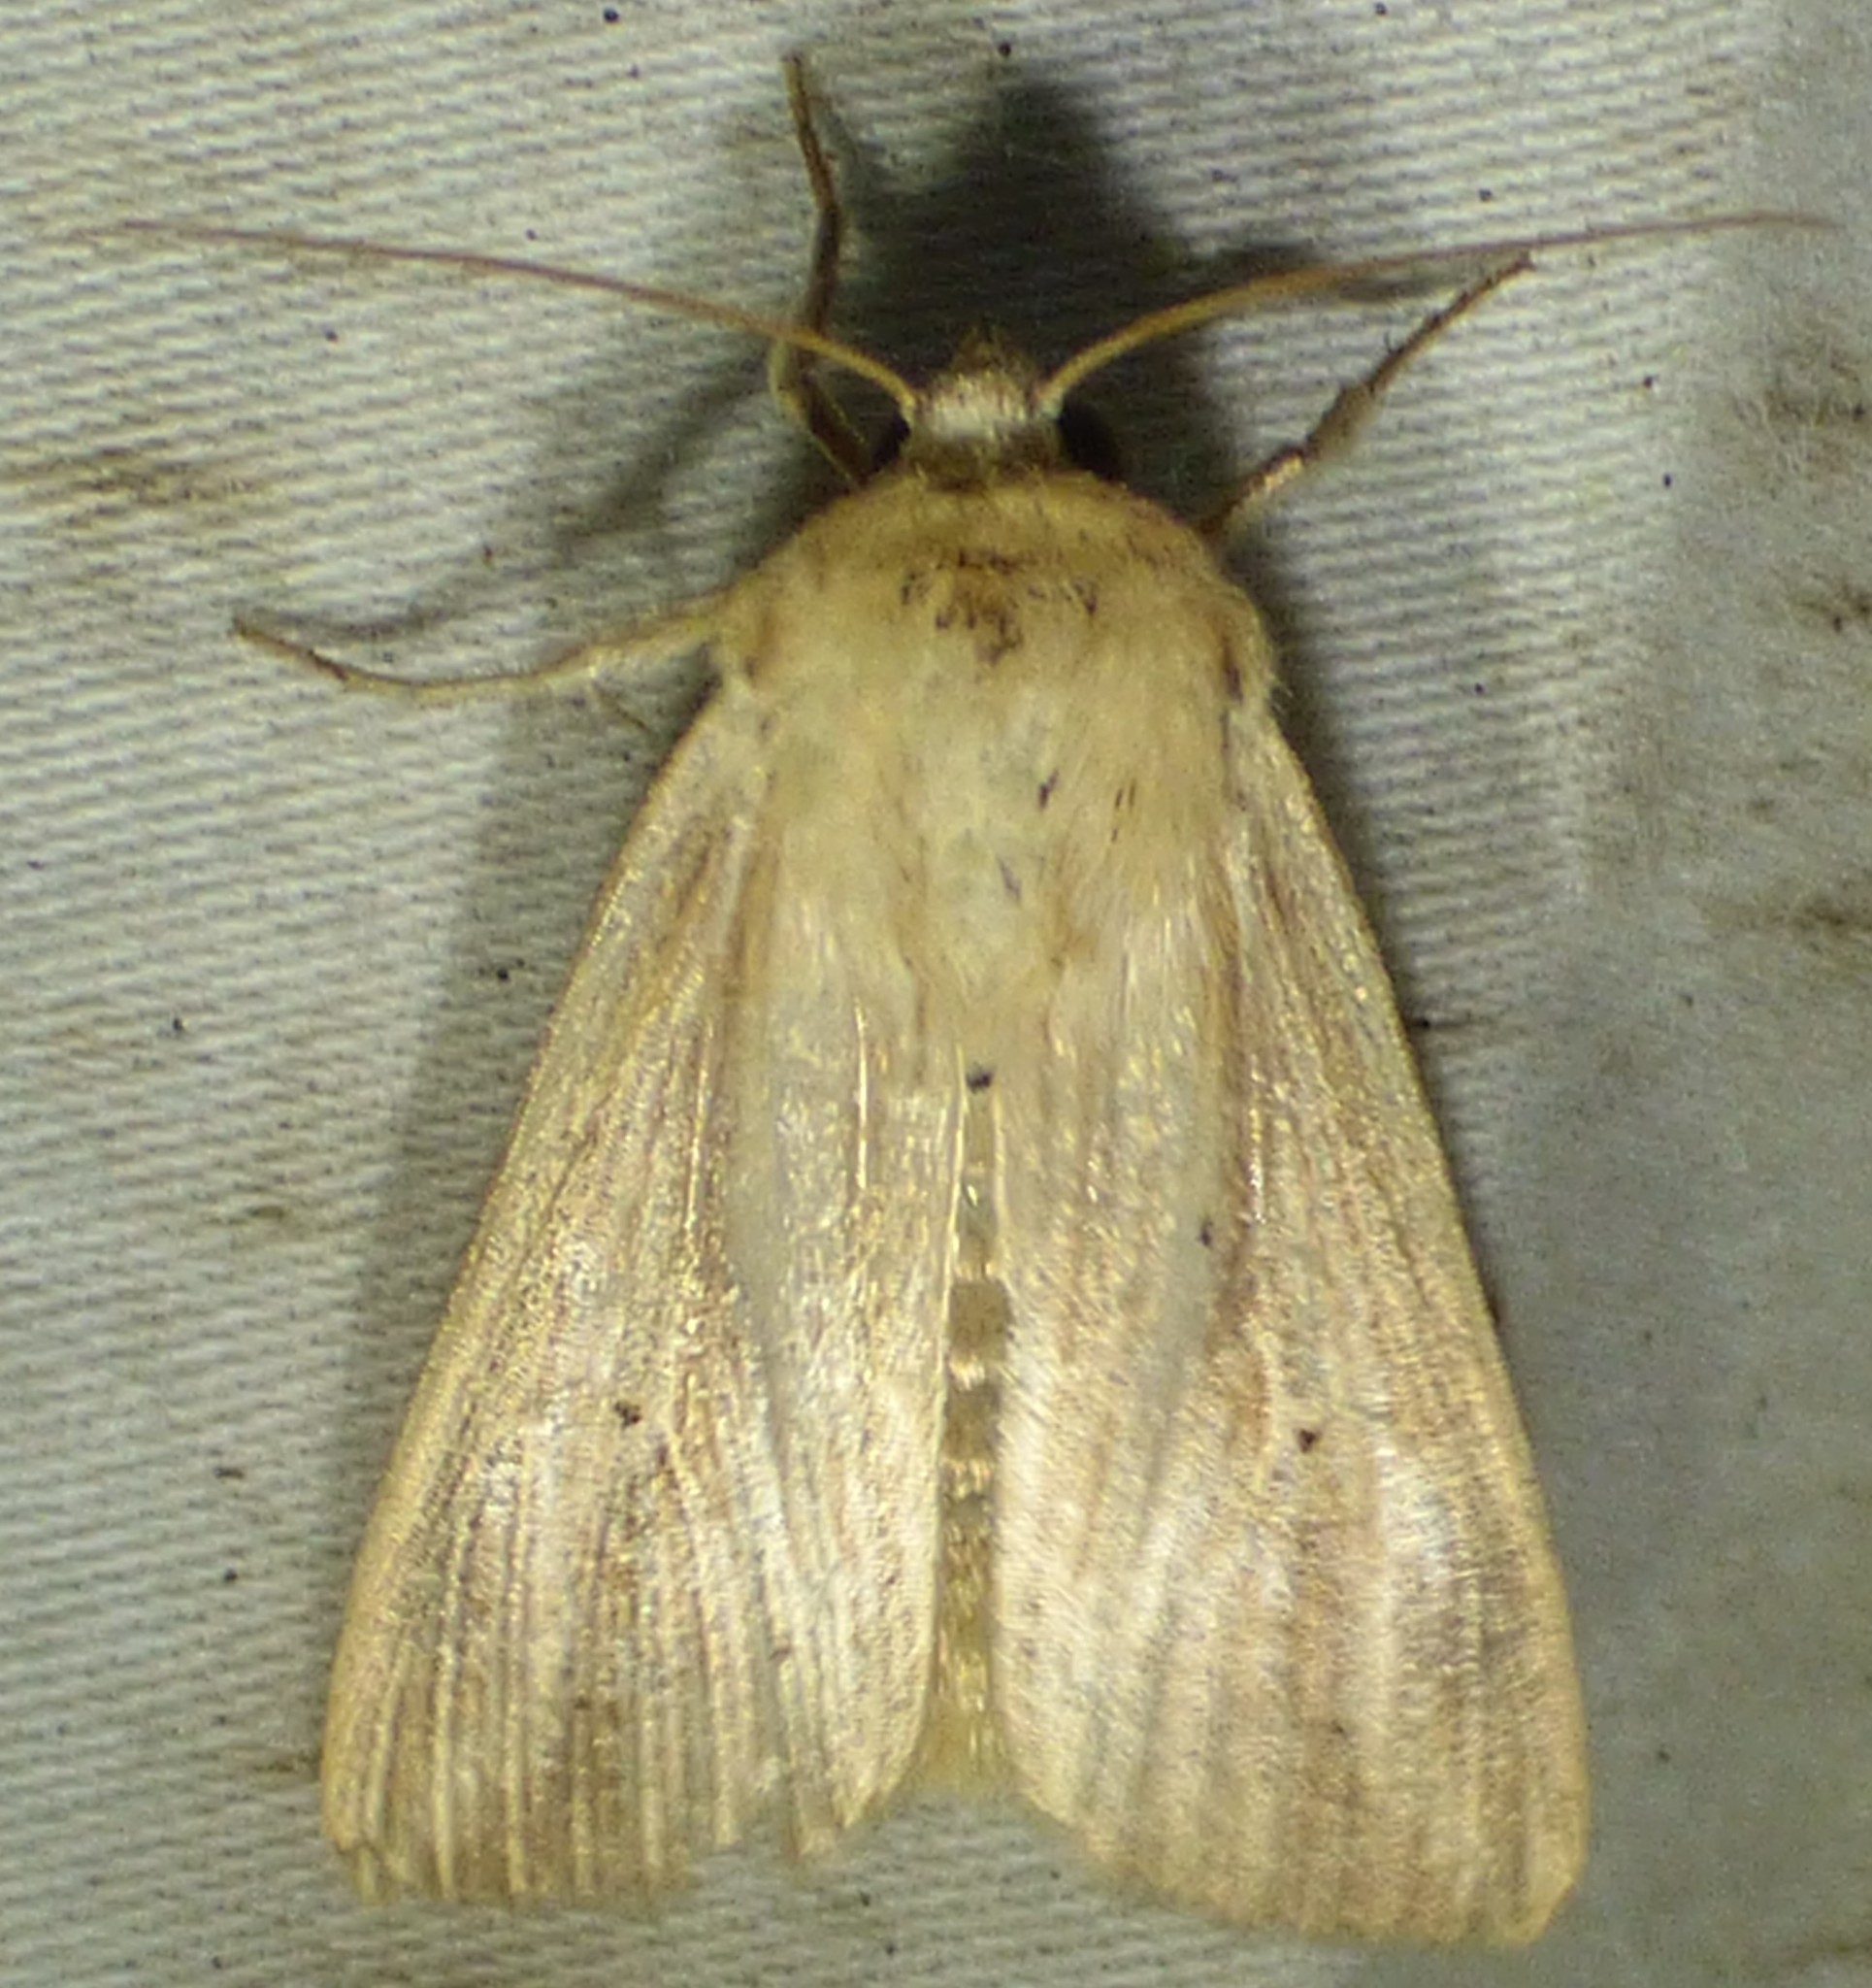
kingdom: Animalia
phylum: Arthropoda
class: Insecta
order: Lepidoptera
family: Noctuidae
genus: Leucania
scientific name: Leucania adjuta
